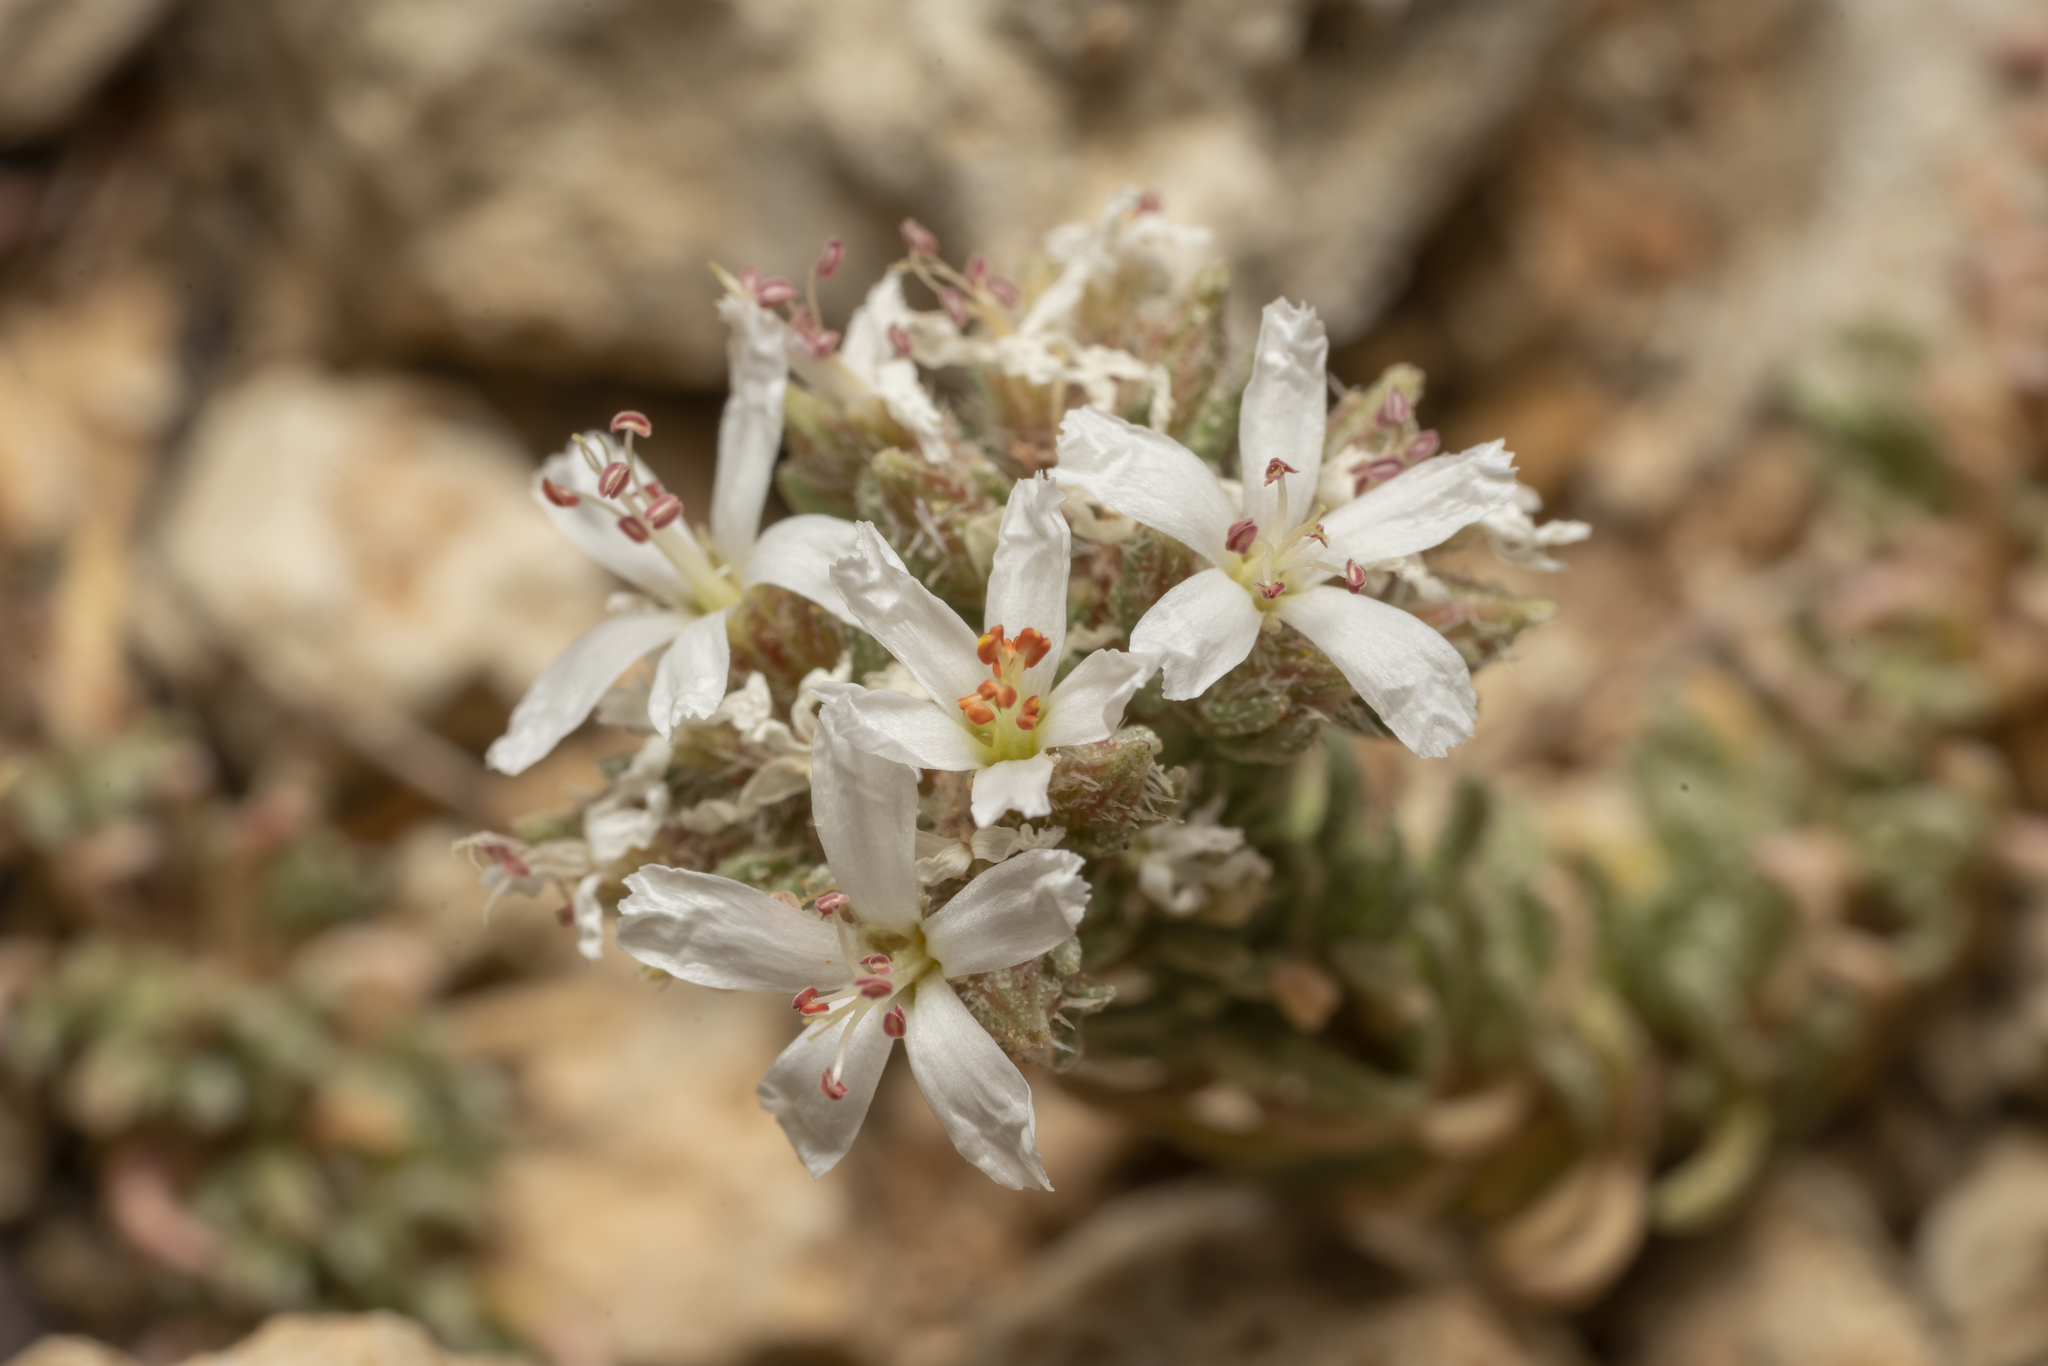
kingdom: Plantae
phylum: Tracheophyta
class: Magnoliopsida
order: Caryophyllales
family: Frankeniaceae
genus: Frankenia
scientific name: Frankenia hirsuta
